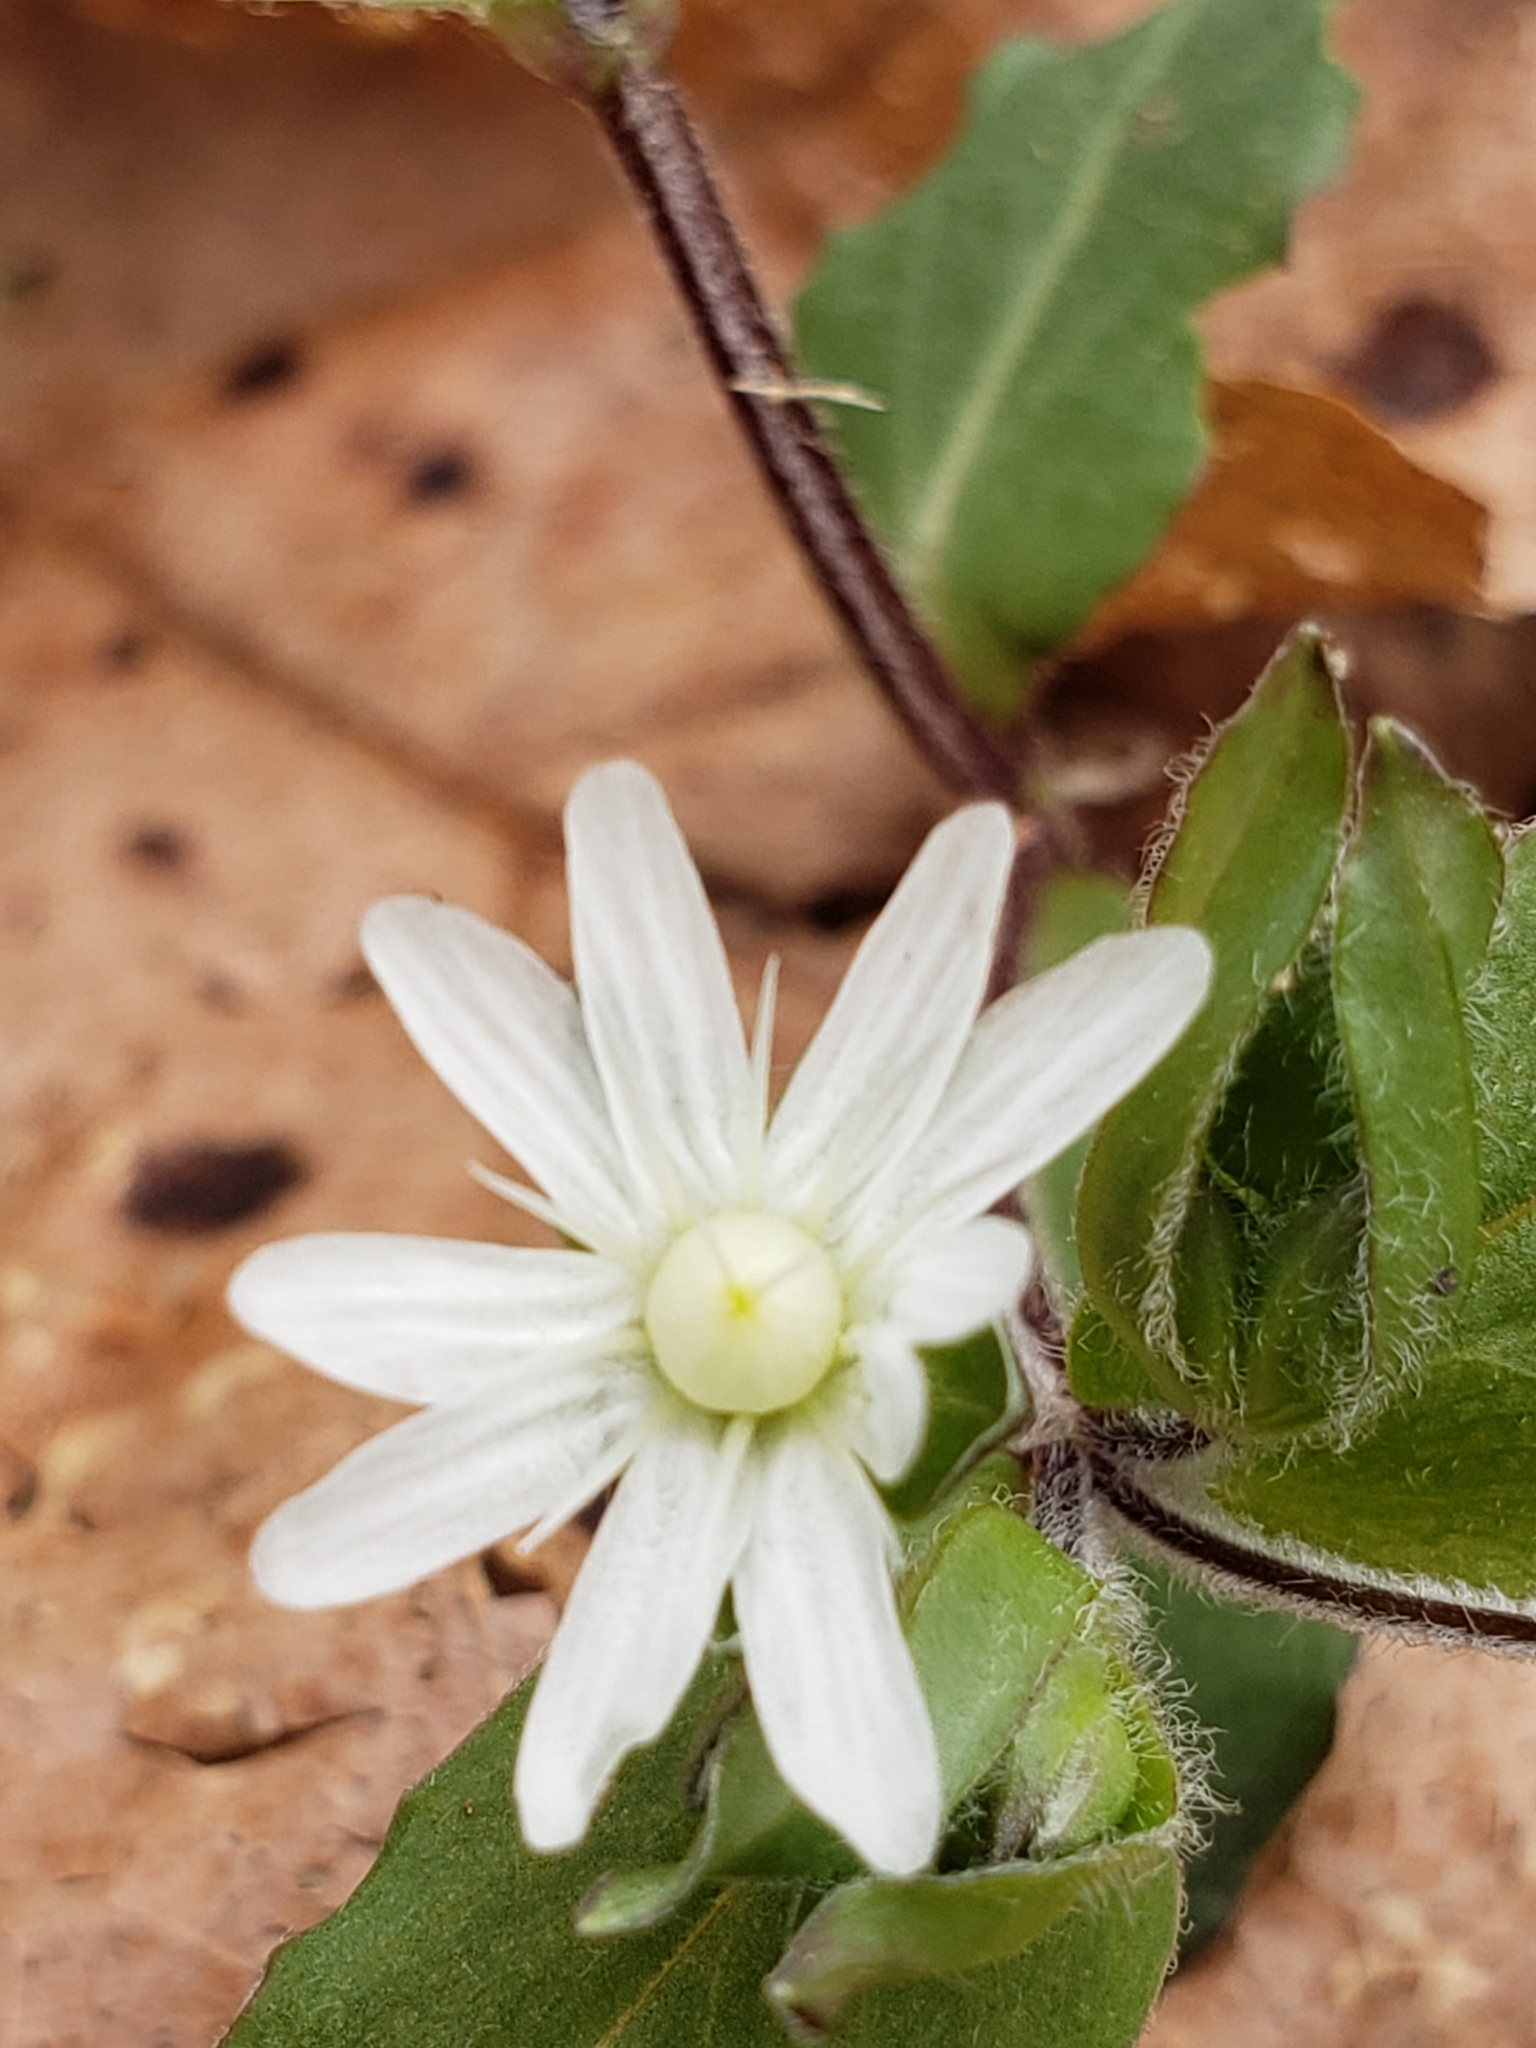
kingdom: Plantae
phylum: Tracheophyta
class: Magnoliopsida
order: Caryophyllales
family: Caryophyllaceae
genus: Stellaria
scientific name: Stellaria pubera
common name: Star chickweed
